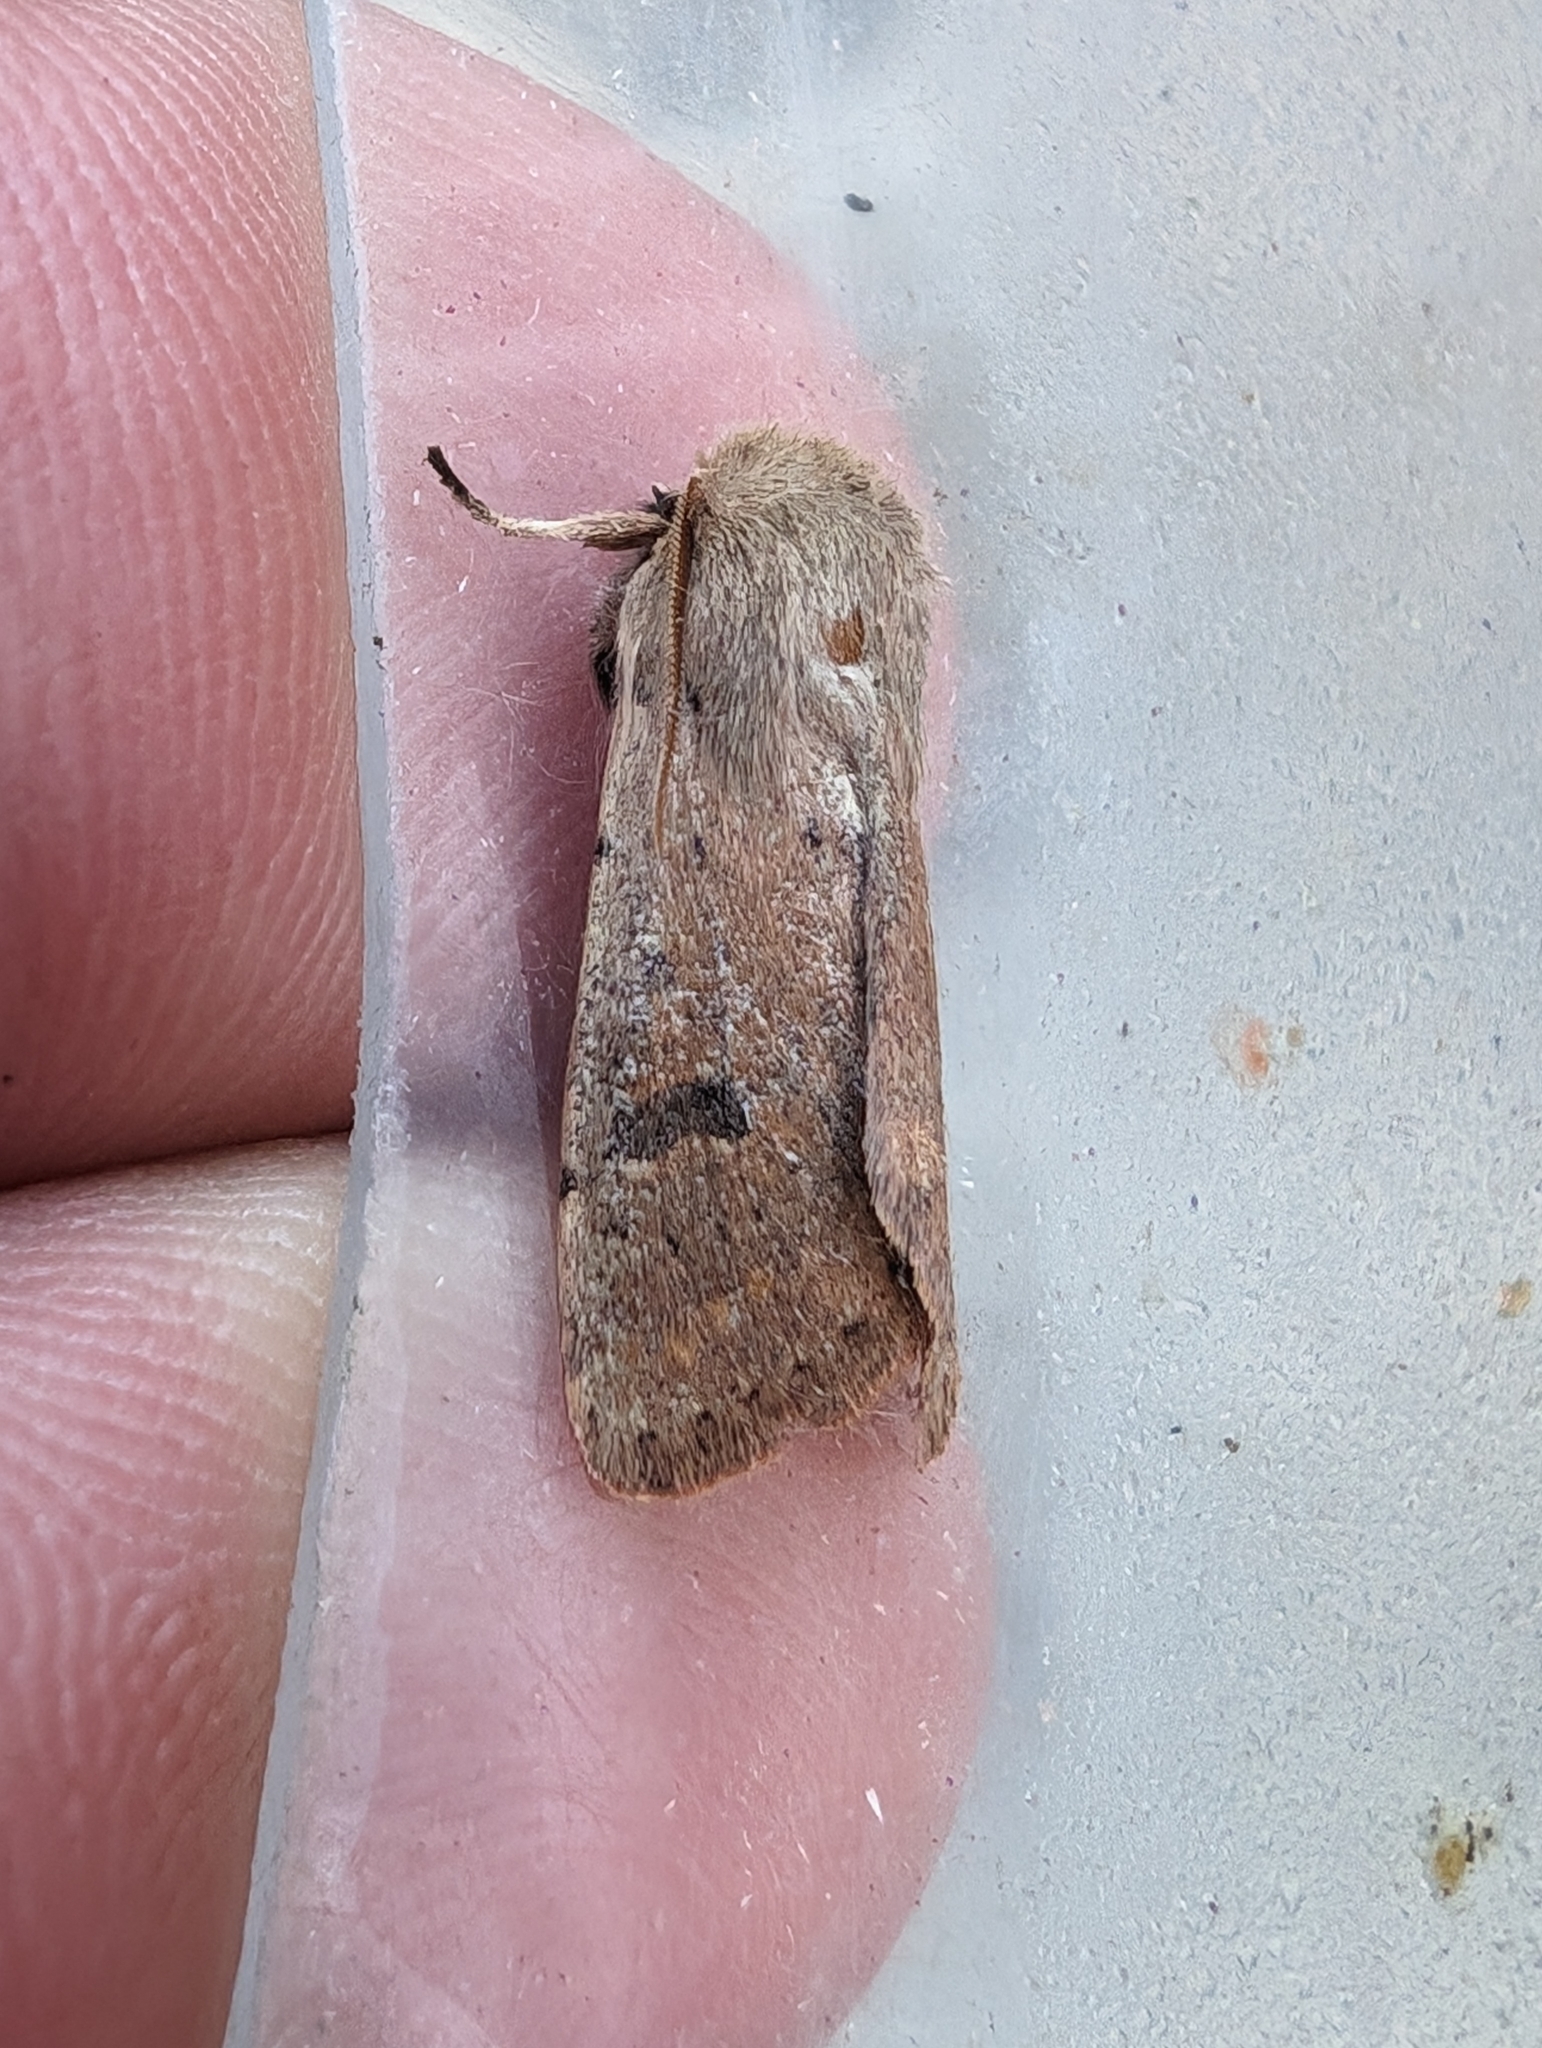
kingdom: Animalia
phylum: Arthropoda
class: Insecta
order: Lepidoptera
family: Noctuidae
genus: Orthosia
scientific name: Orthosia cruda
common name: Small quaker
